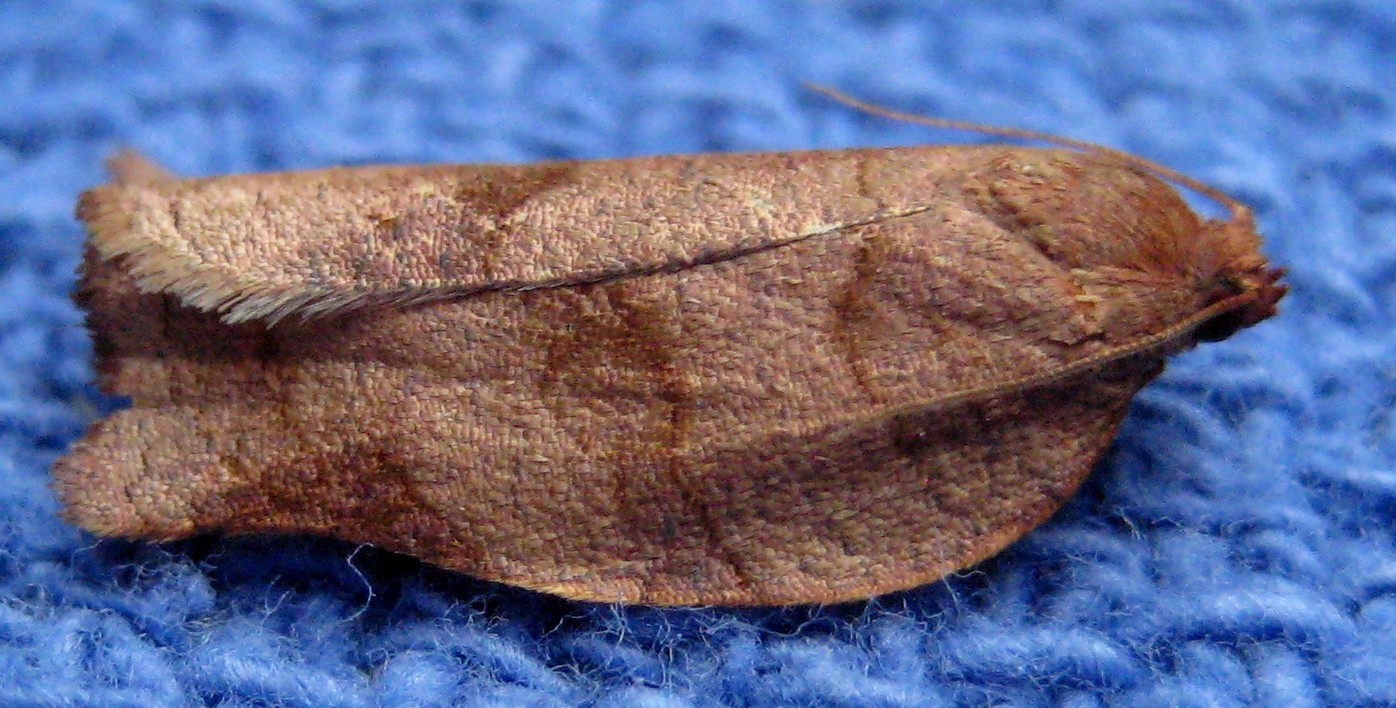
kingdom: Animalia
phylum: Arthropoda
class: Insecta
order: Lepidoptera
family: Tortricidae
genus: Choristoneura
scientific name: Choristoneura rosaceana
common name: Oblique-banded leafroller moth
